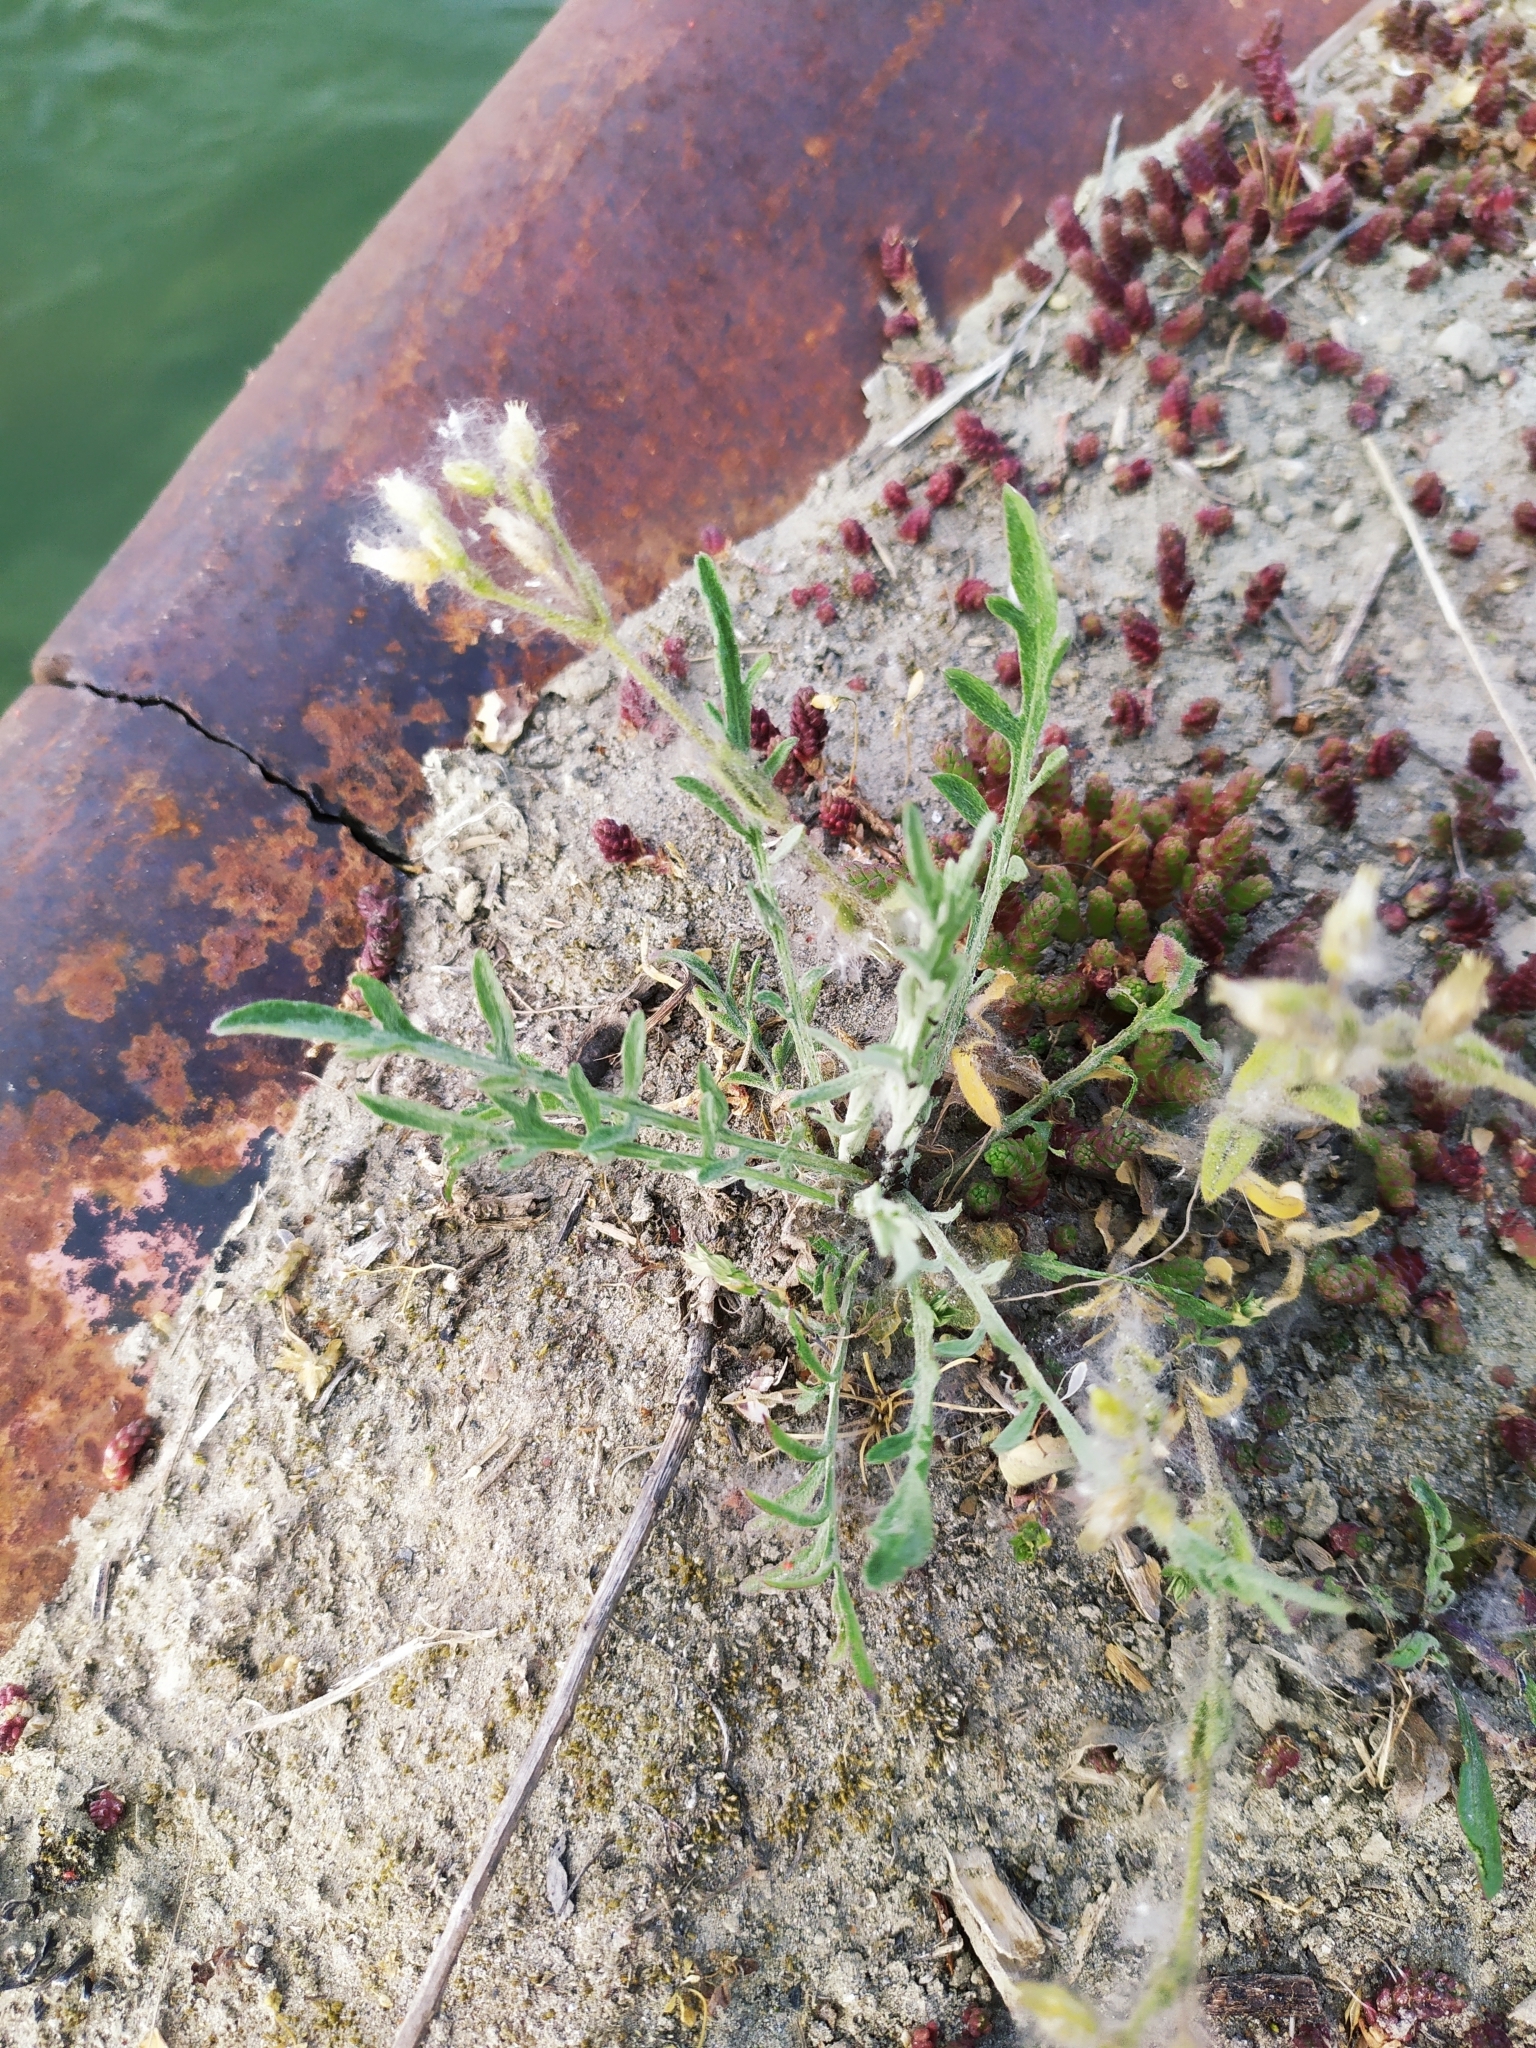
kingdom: Plantae
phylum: Tracheophyta
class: Magnoliopsida
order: Caryophyllales
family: Caryophyllaceae
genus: Cerastium
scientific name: Cerastium glutinosum
